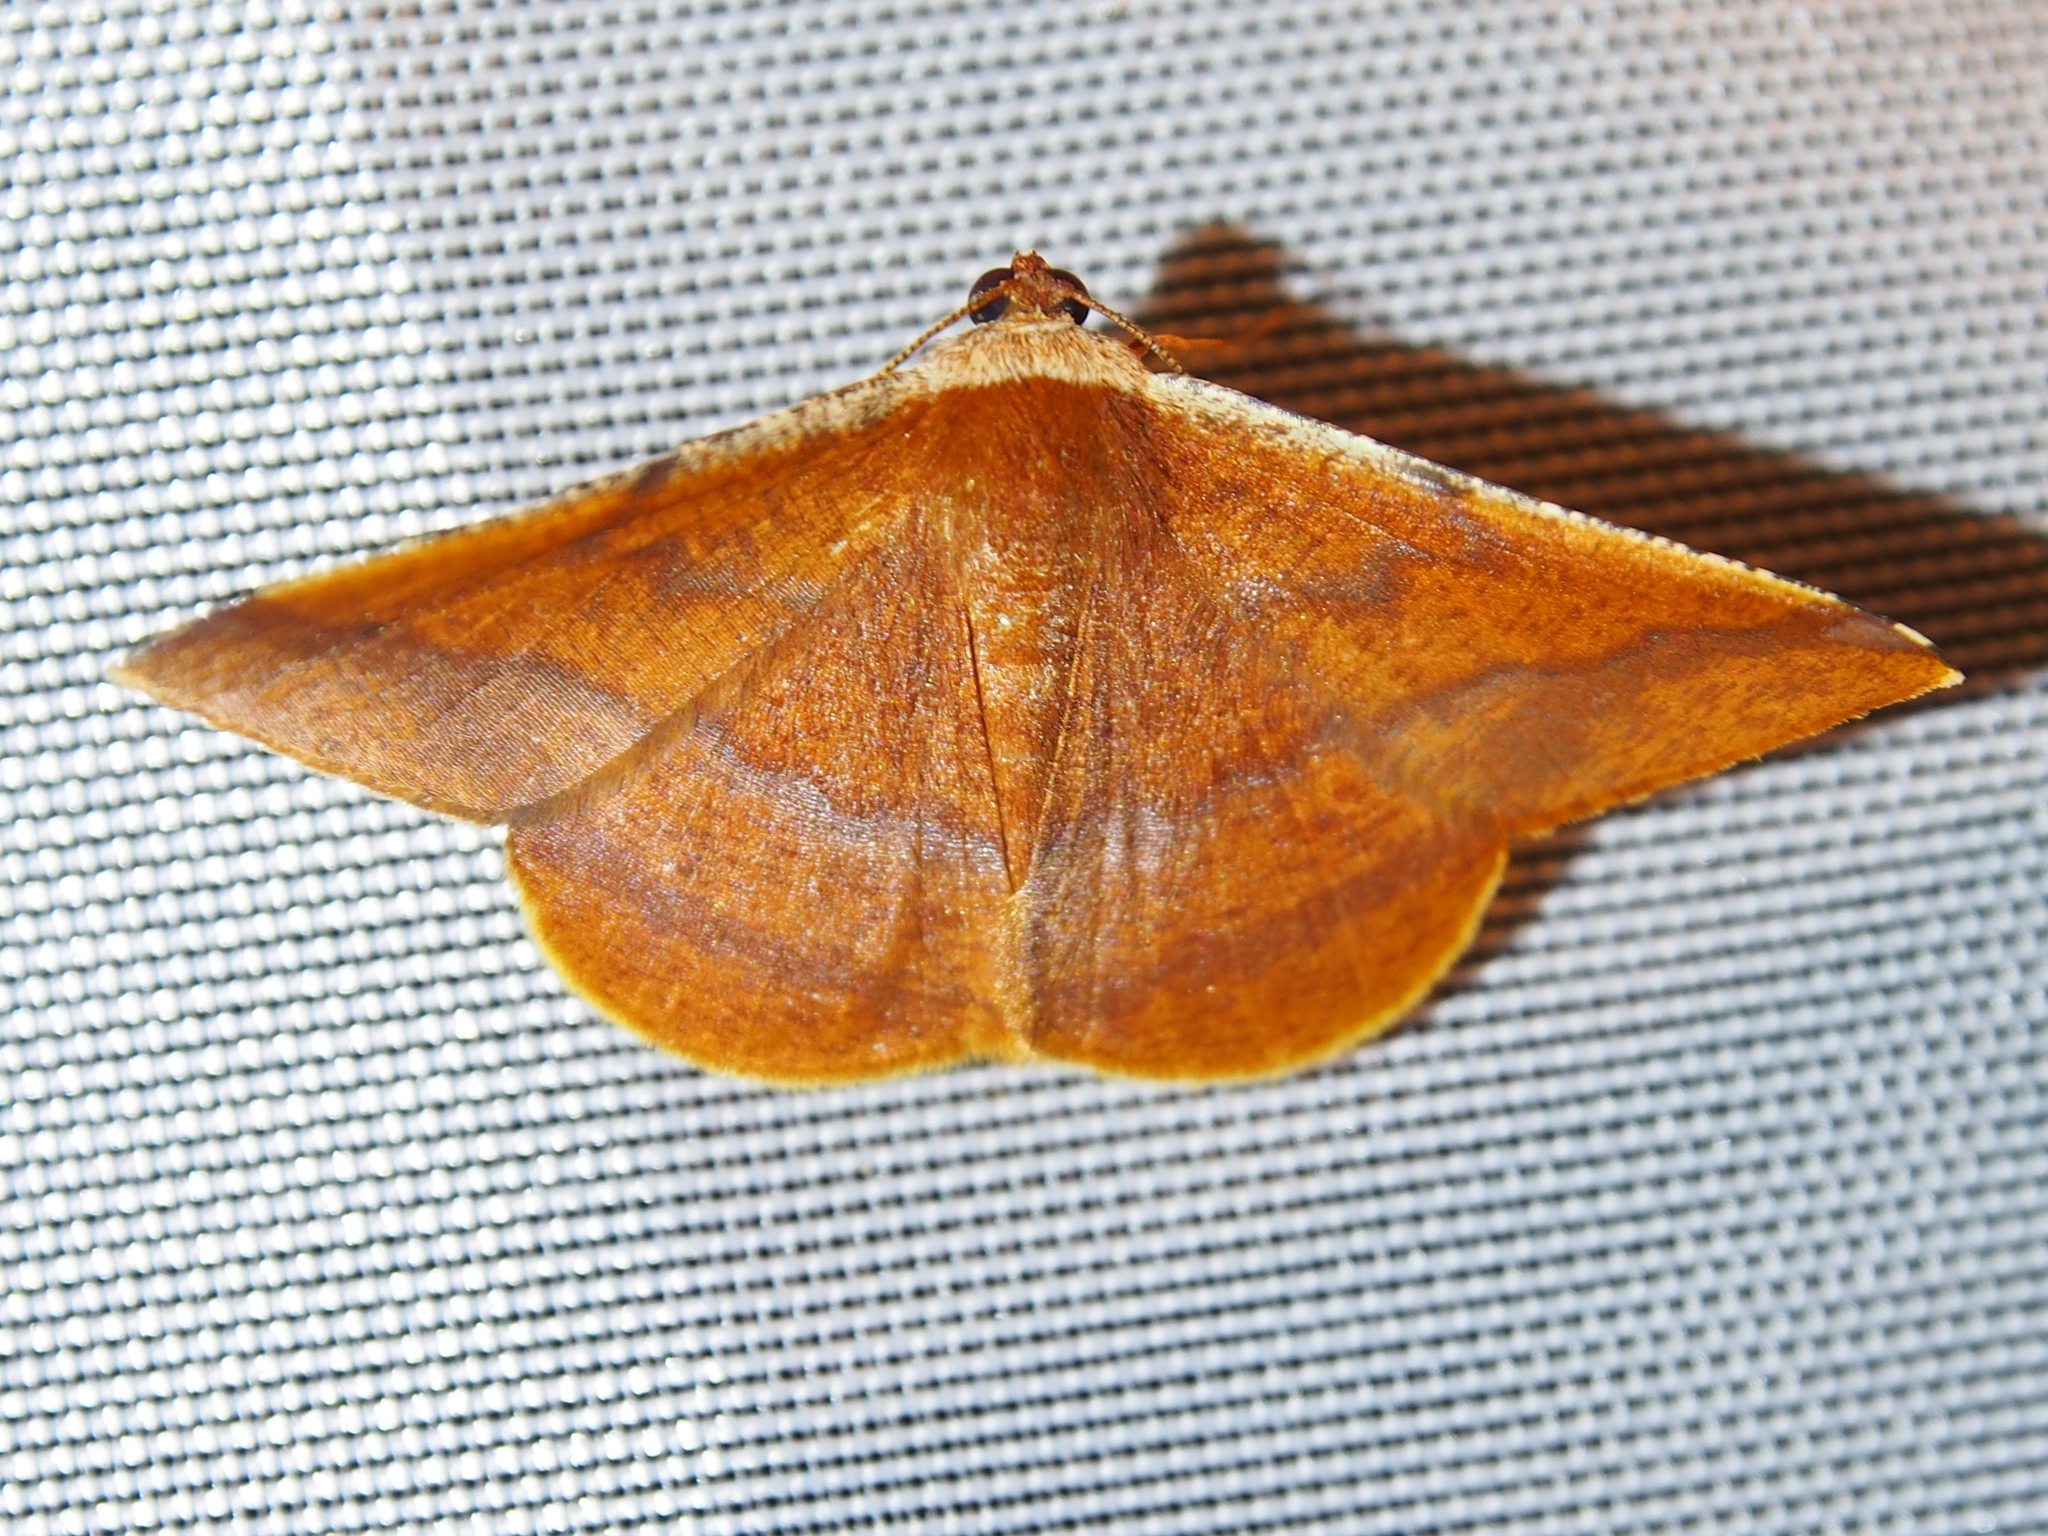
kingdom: Animalia
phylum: Arthropoda
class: Insecta
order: Lepidoptera
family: Geometridae
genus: Pyrinia
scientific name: Pyrinia sanitaria
